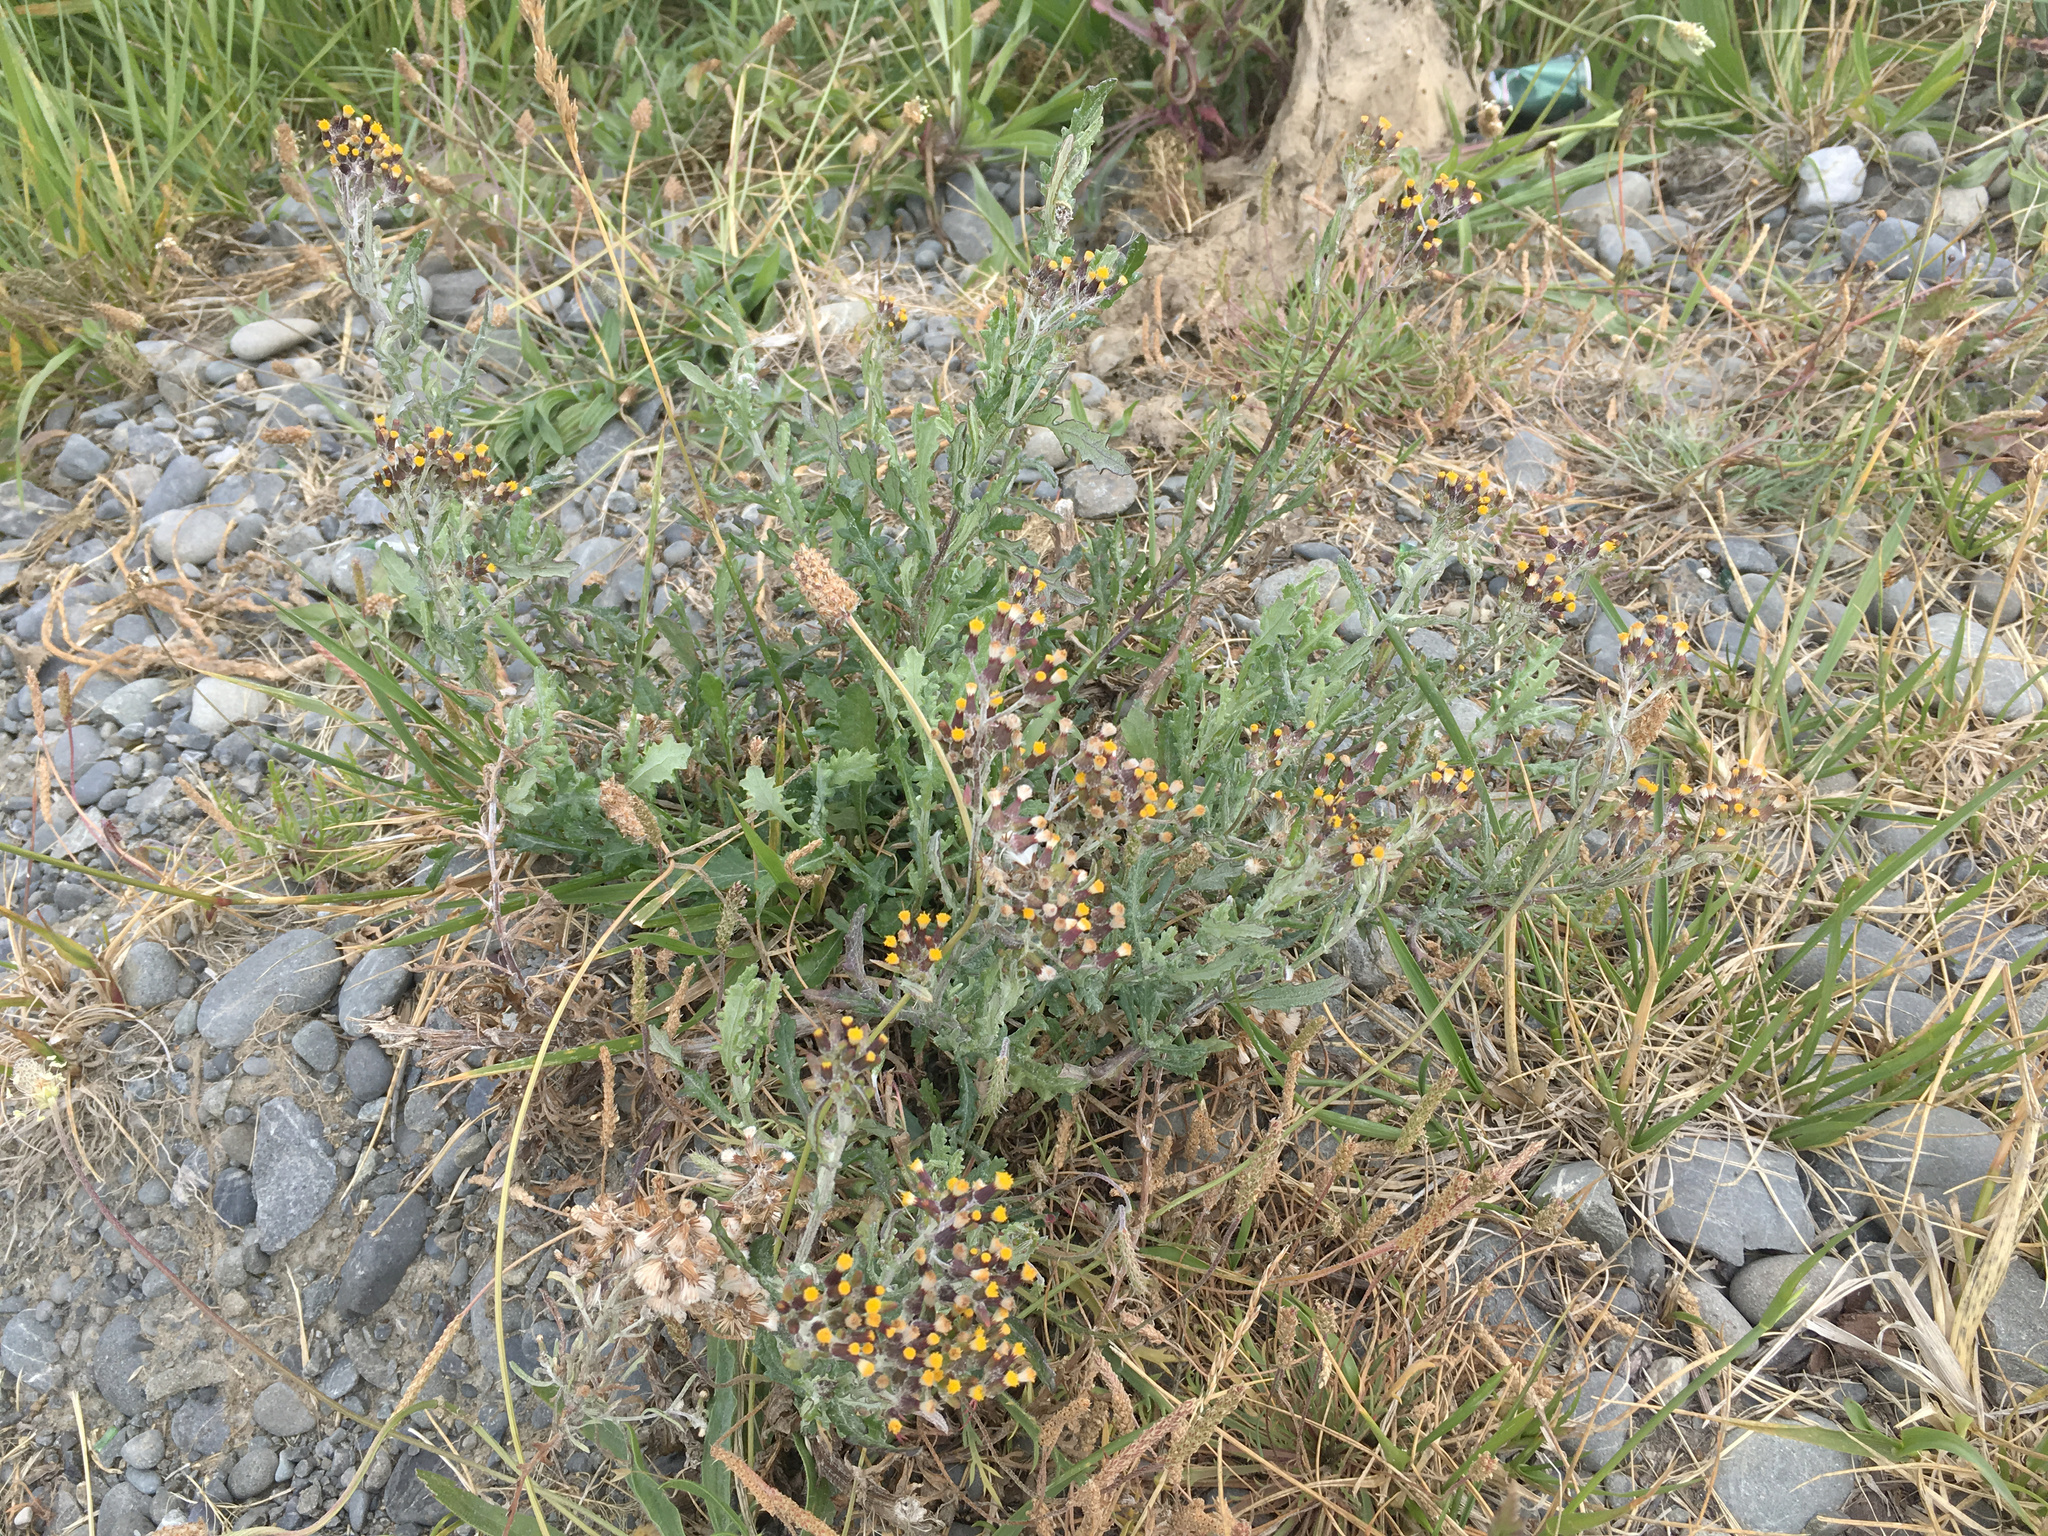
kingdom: Plantae
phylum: Tracheophyta
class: Magnoliopsida
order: Asterales
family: Asteraceae
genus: Senecio
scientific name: Senecio glomeratus
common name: Cutleaf burnweed
